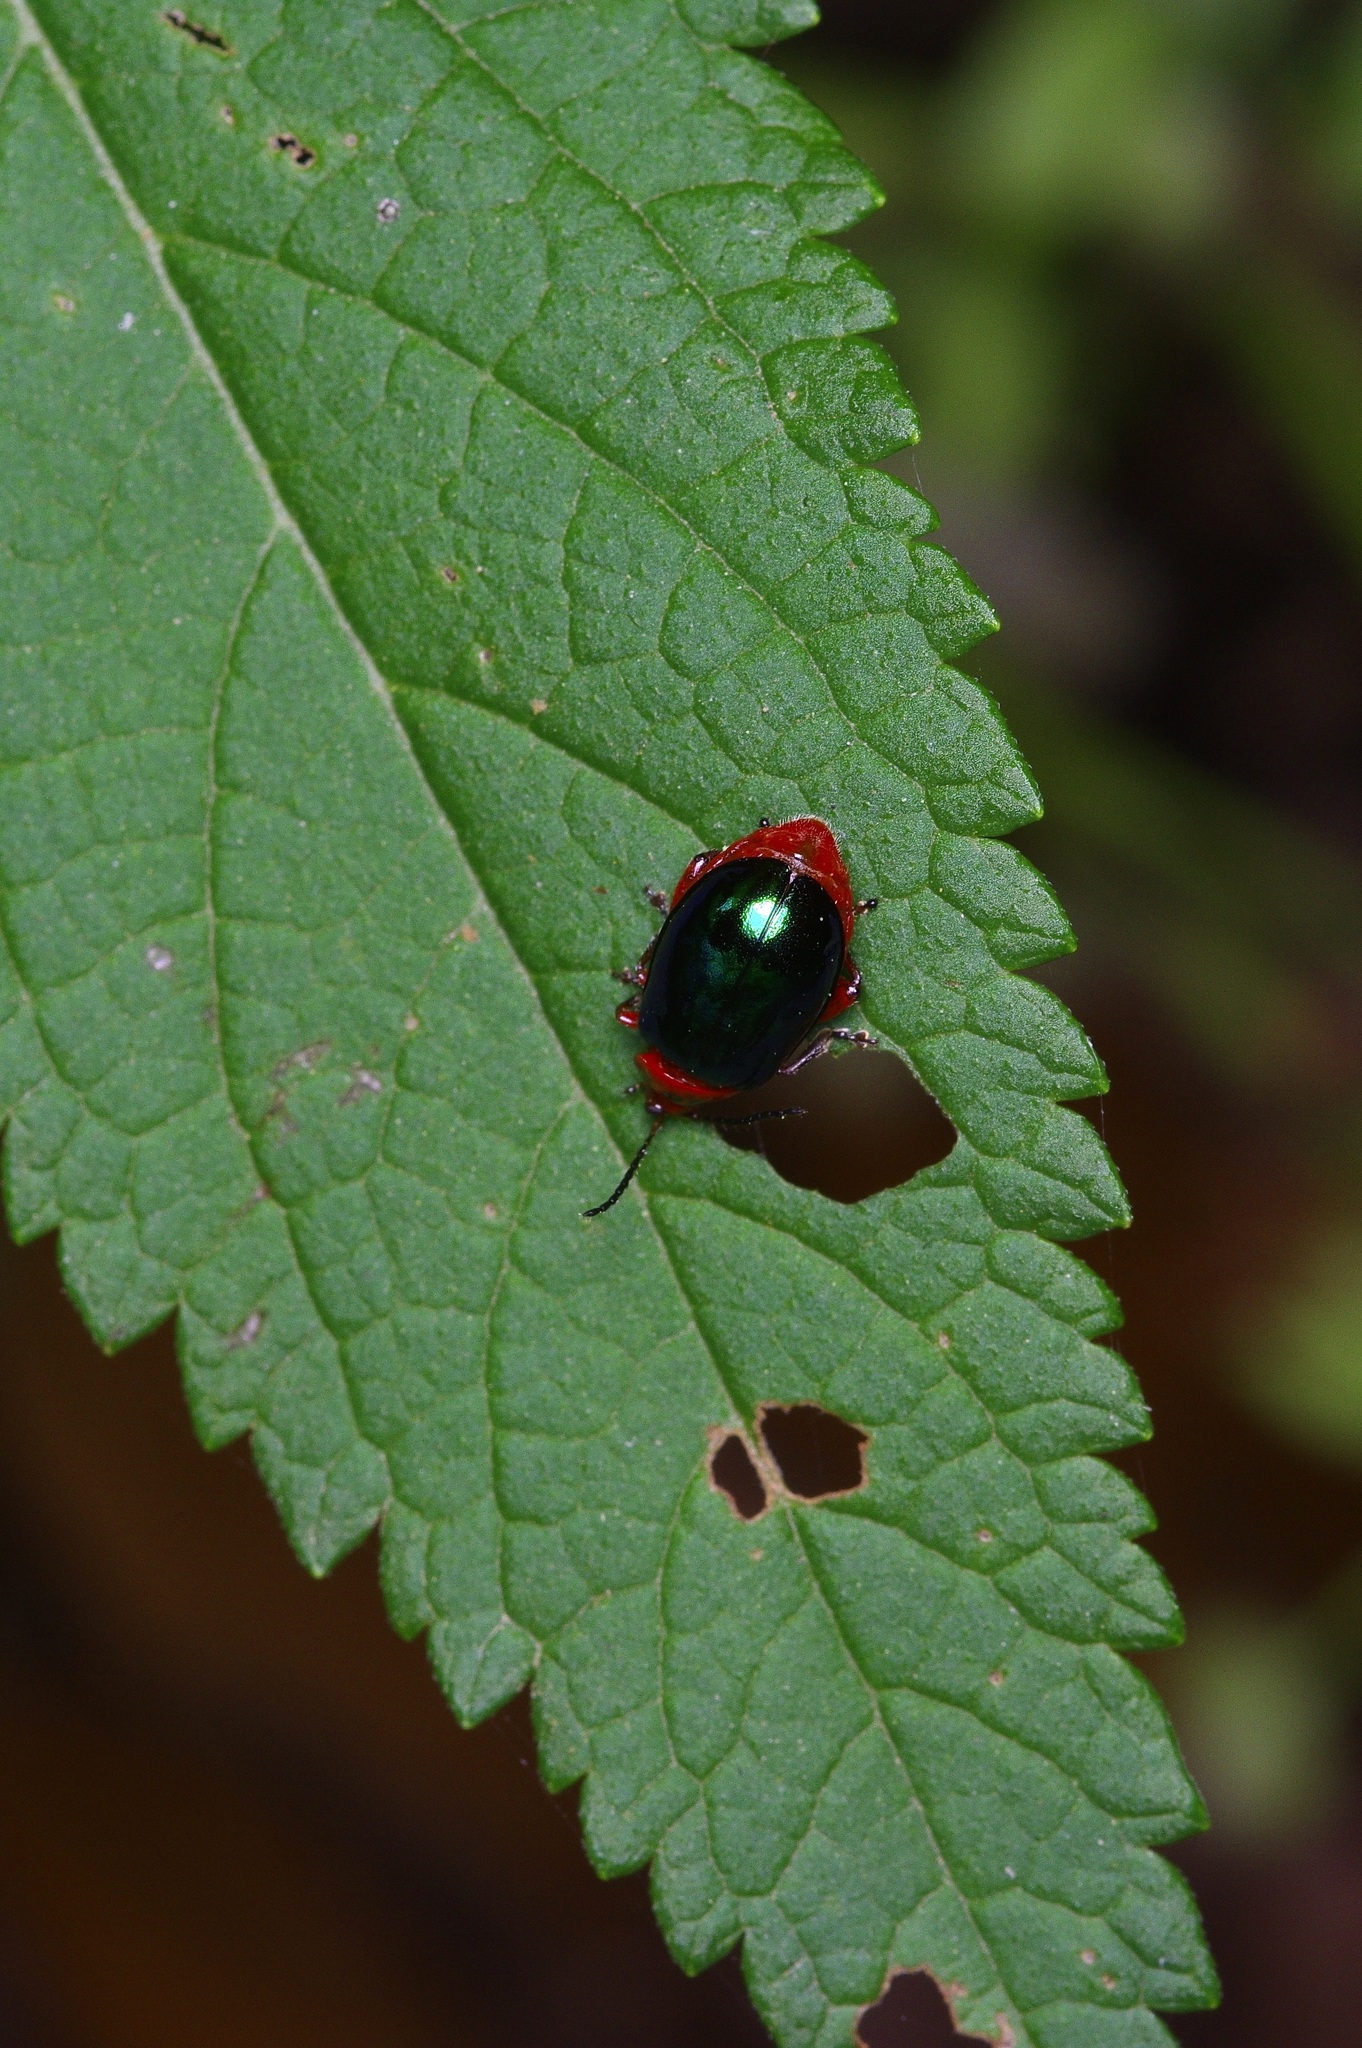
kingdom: Animalia
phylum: Arthropoda
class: Insecta
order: Coleoptera
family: Chrysomelidae
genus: Kuschelina
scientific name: Kuschelina gibbitarsa
